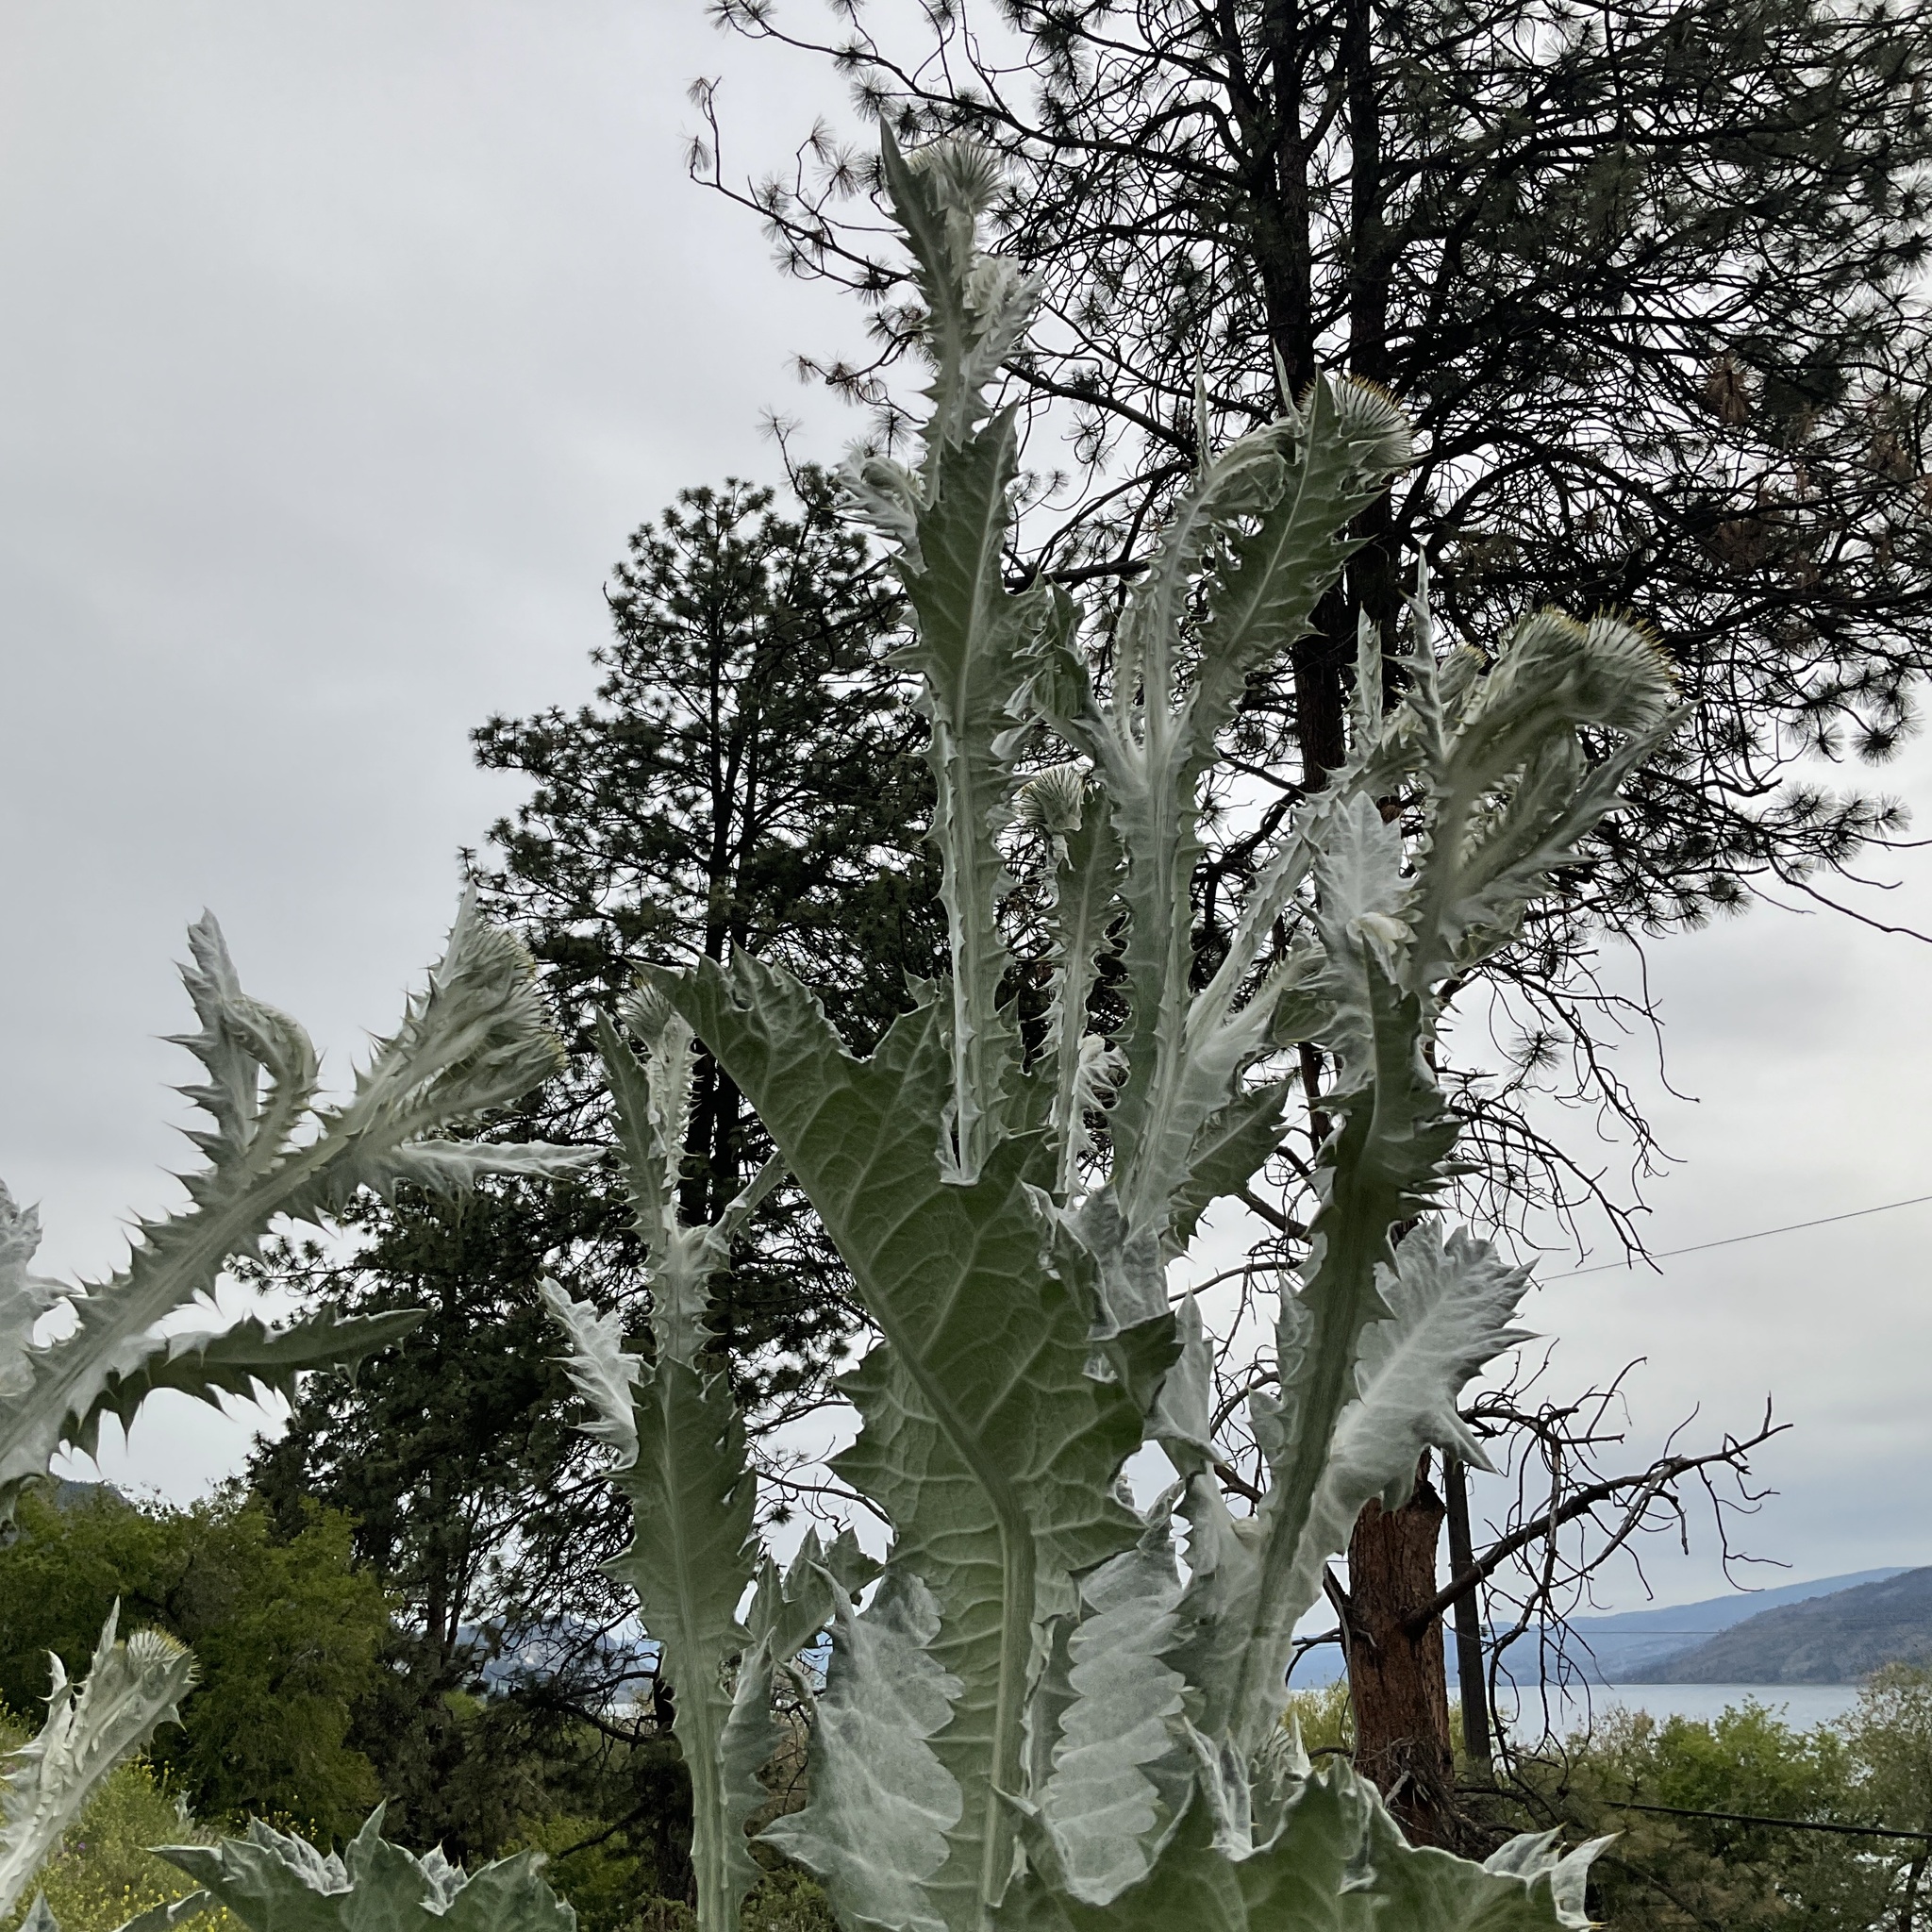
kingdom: Plantae
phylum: Tracheophyta
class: Magnoliopsida
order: Asterales
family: Asteraceae
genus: Onopordum
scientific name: Onopordum acanthium
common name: Scotch thistle
